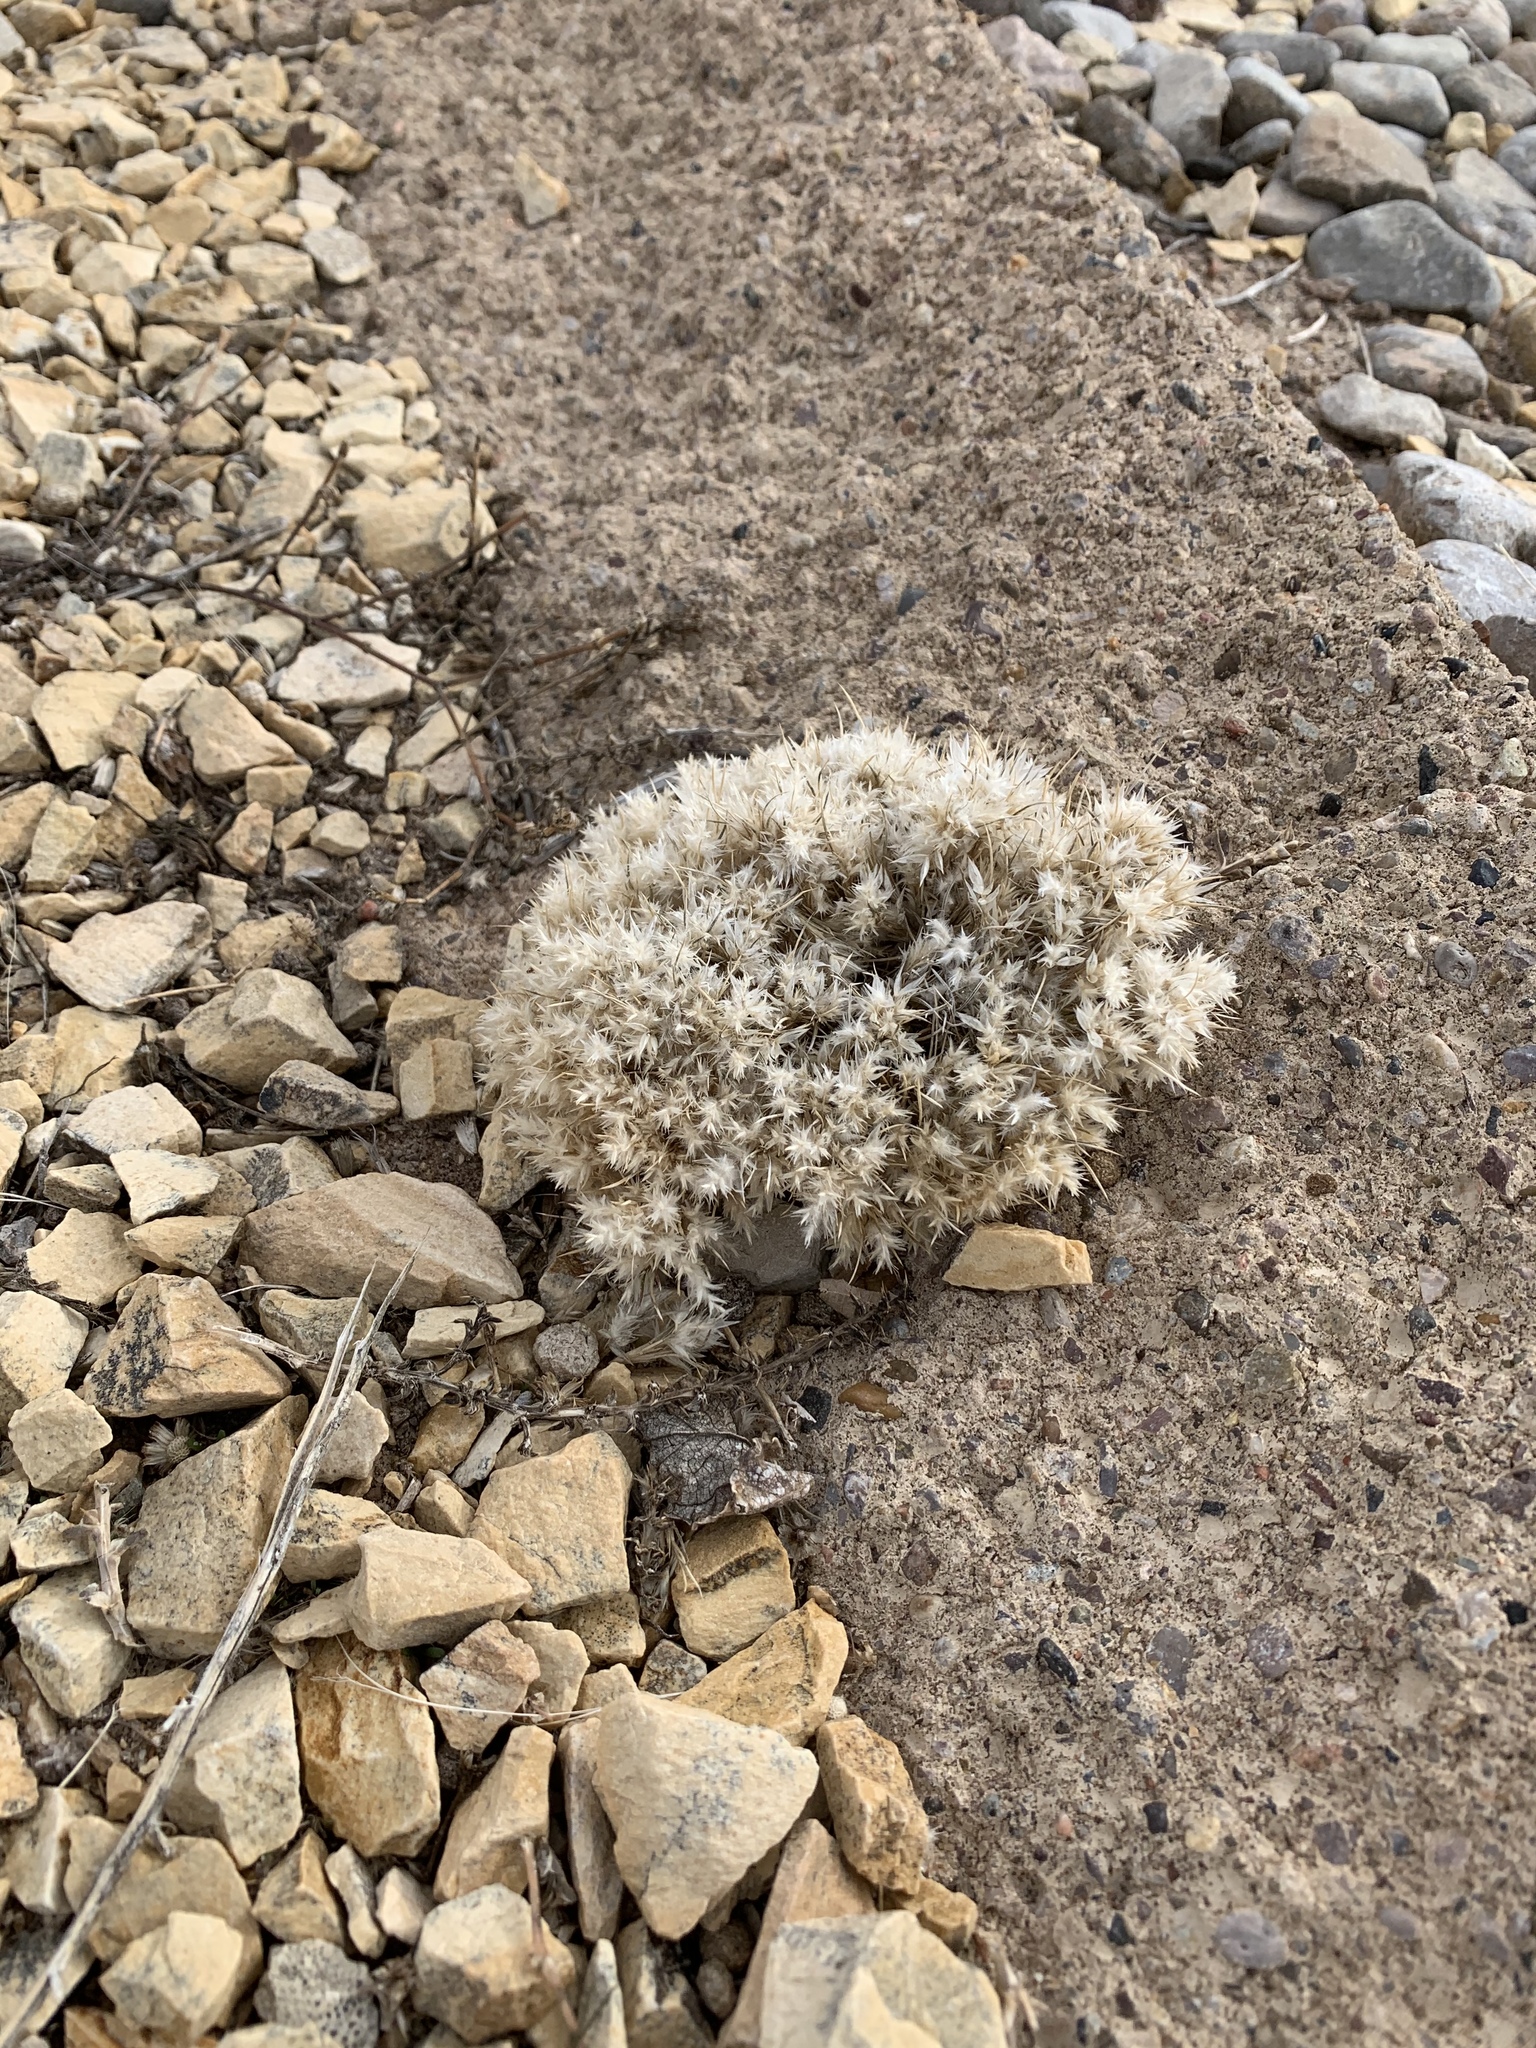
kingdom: Plantae
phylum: Tracheophyta
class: Liliopsida
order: Poales
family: Poaceae
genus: Dasyochloa
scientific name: Dasyochloa pulchella
